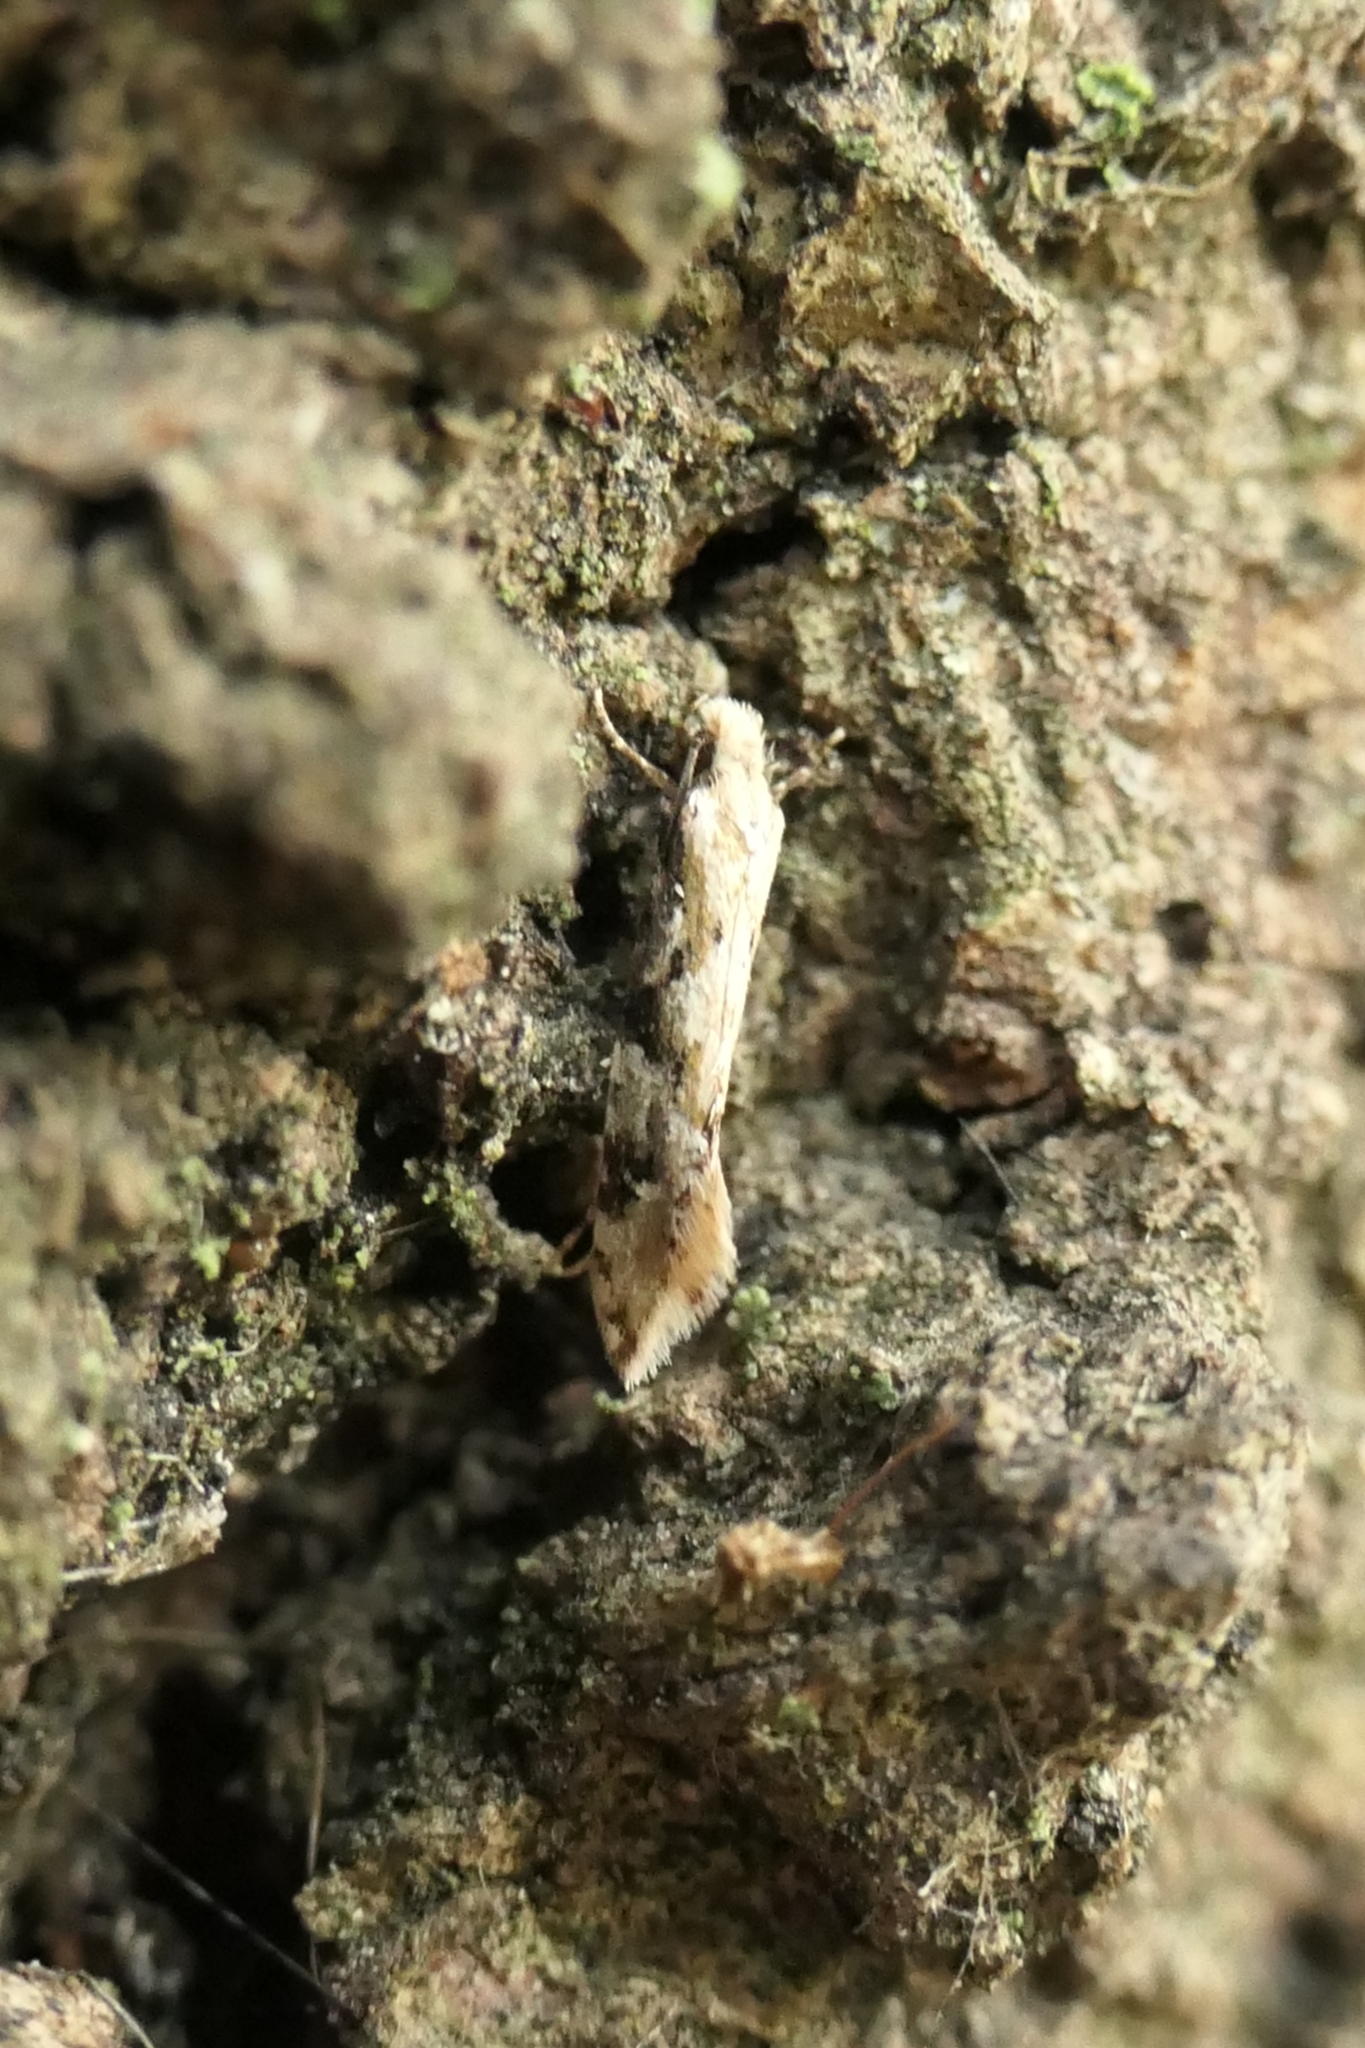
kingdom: Animalia
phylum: Arthropoda
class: Insecta
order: Lepidoptera
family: Tineidae
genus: Crypsitricha
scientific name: Crypsitricha mesotypa
